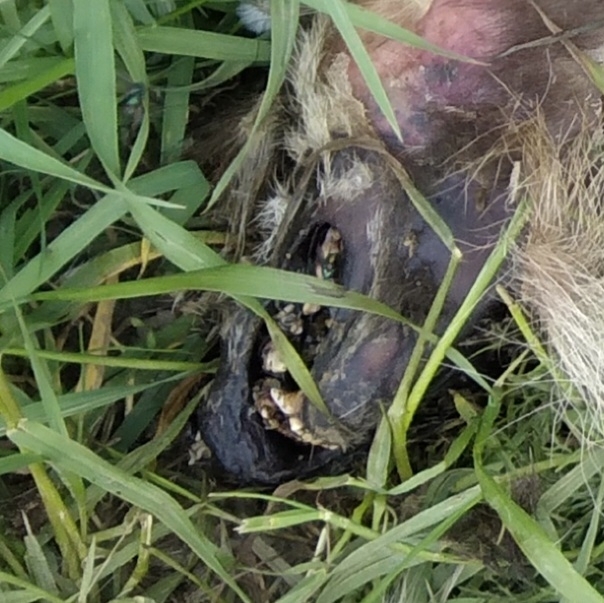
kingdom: Animalia
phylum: Chordata
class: Mammalia
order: Carnivora
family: Mustelidae
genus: Meles
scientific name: Meles meles
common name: Eurasian badger
